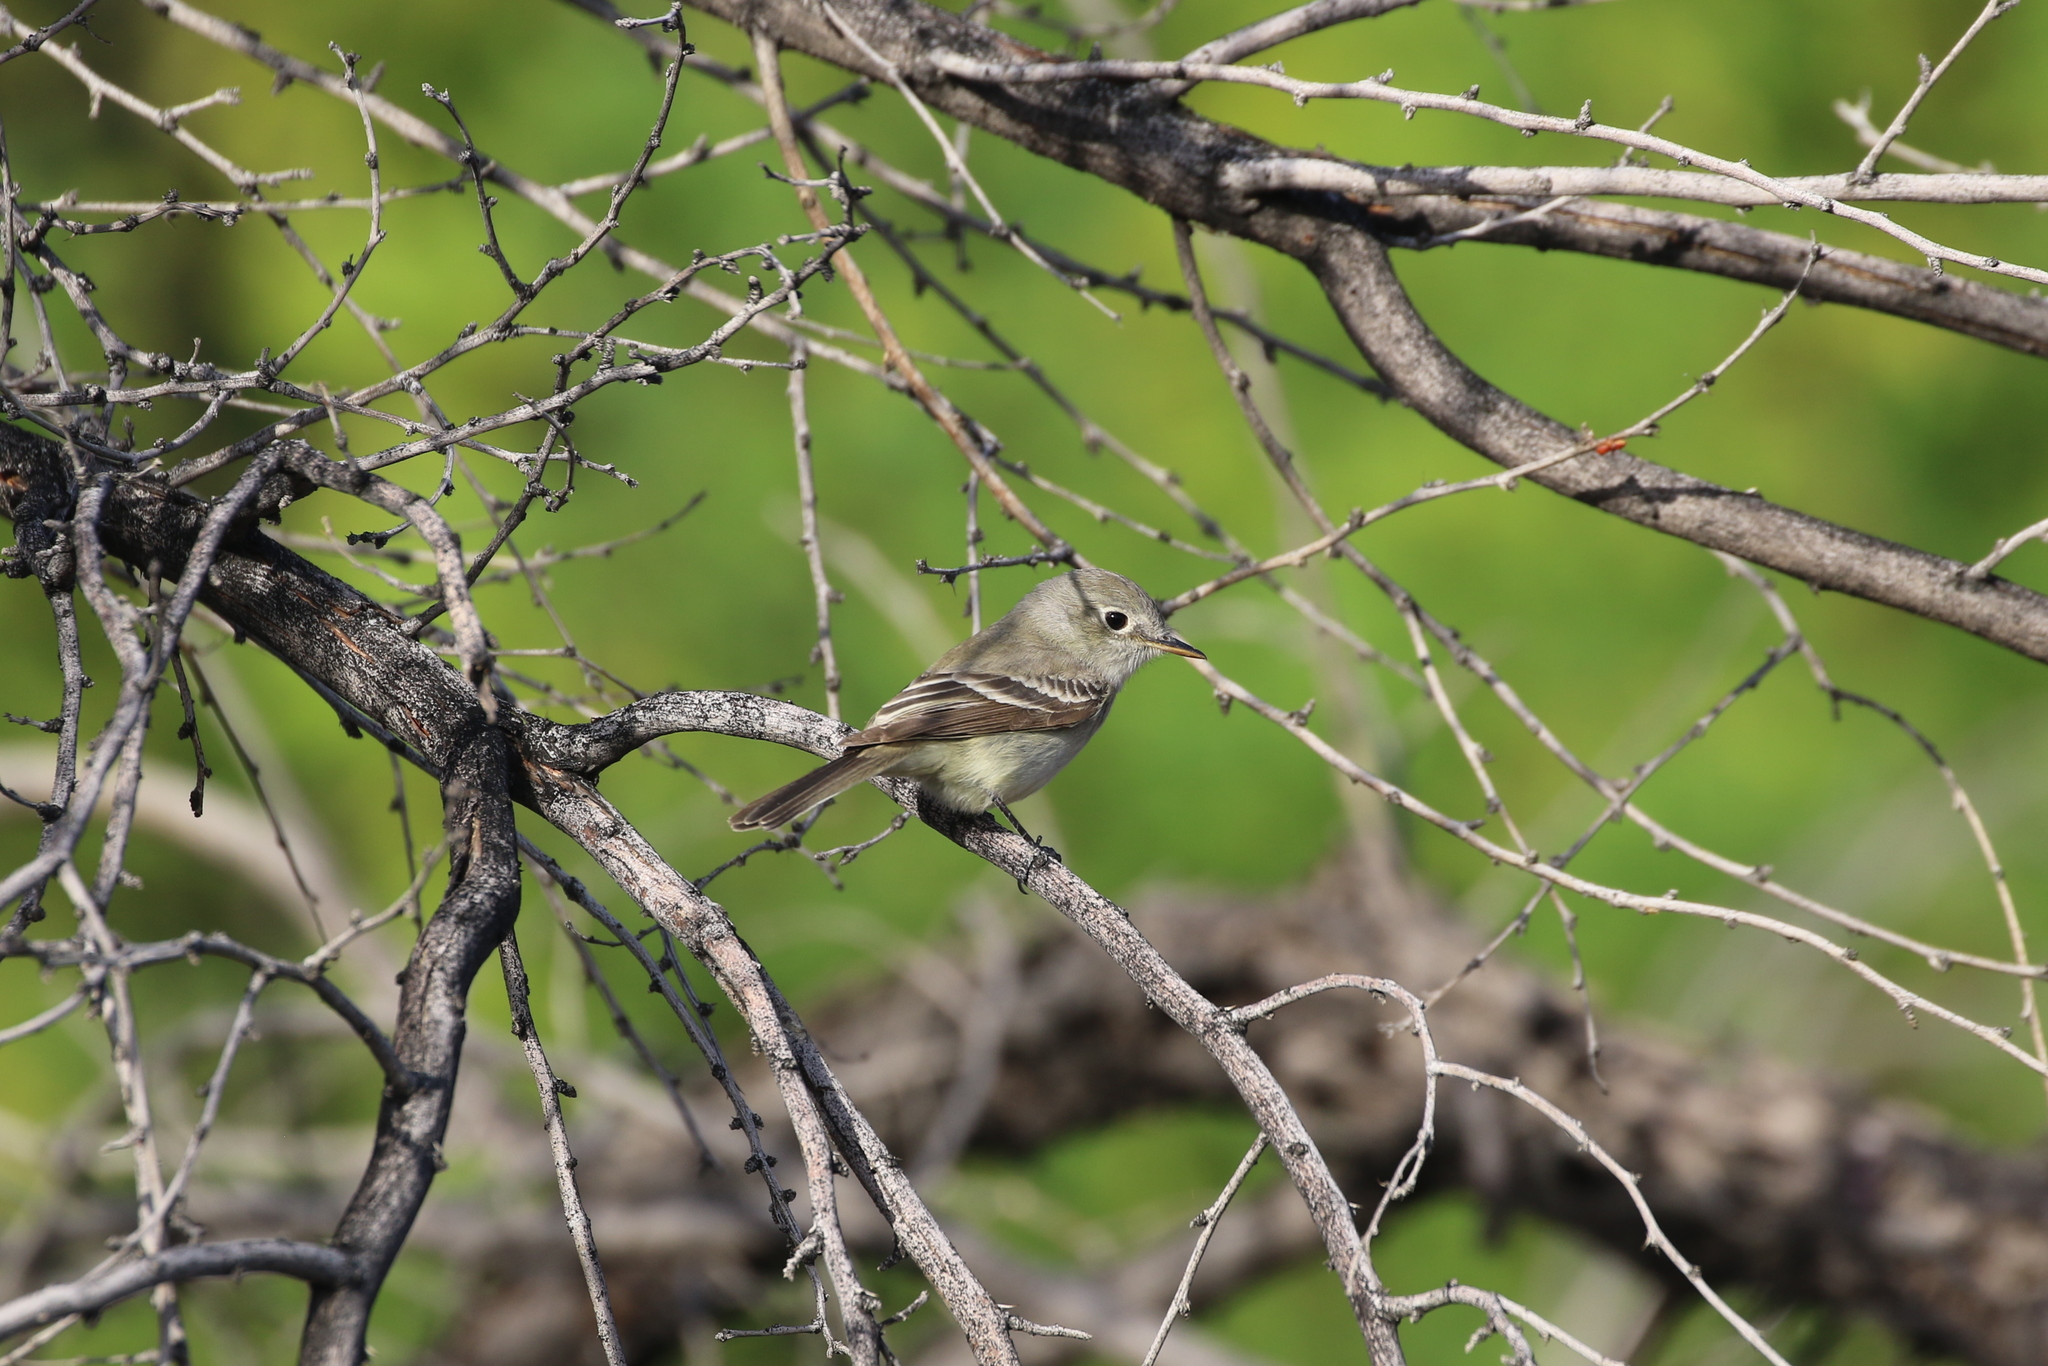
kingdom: Animalia
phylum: Chordata
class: Aves
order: Passeriformes
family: Tyrannidae
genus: Empidonax
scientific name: Empidonax wrightii
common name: Gray flycatcher
